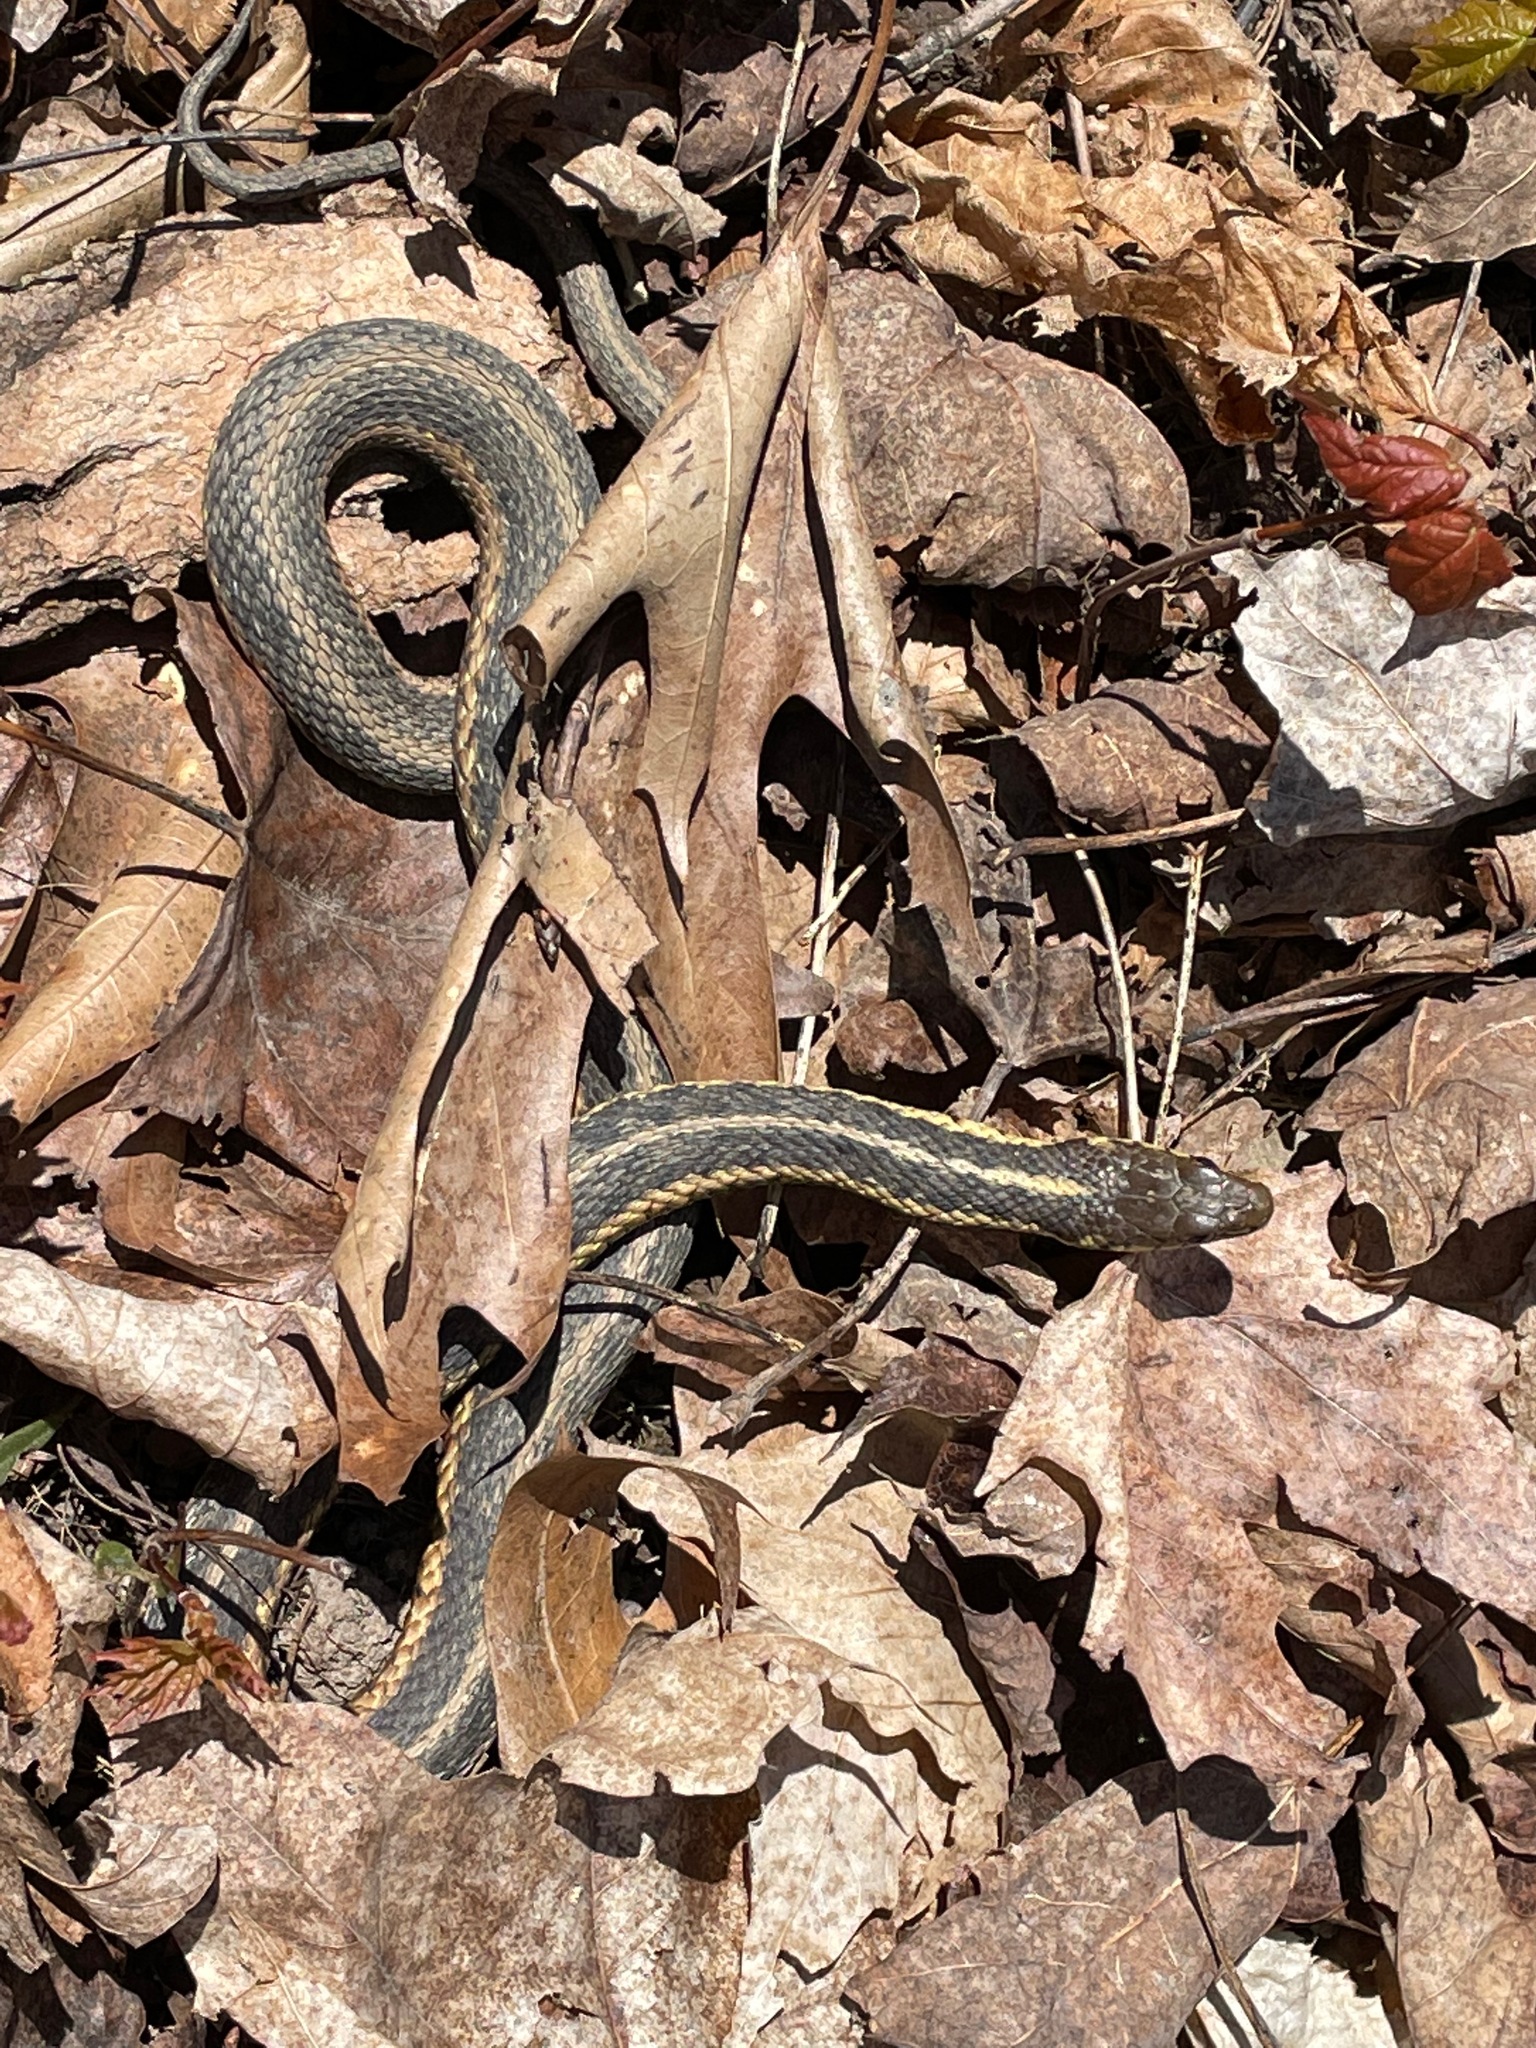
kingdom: Animalia
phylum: Chordata
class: Squamata
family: Colubridae
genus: Thamnophis
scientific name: Thamnophis sirtalis
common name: Common garter snake
